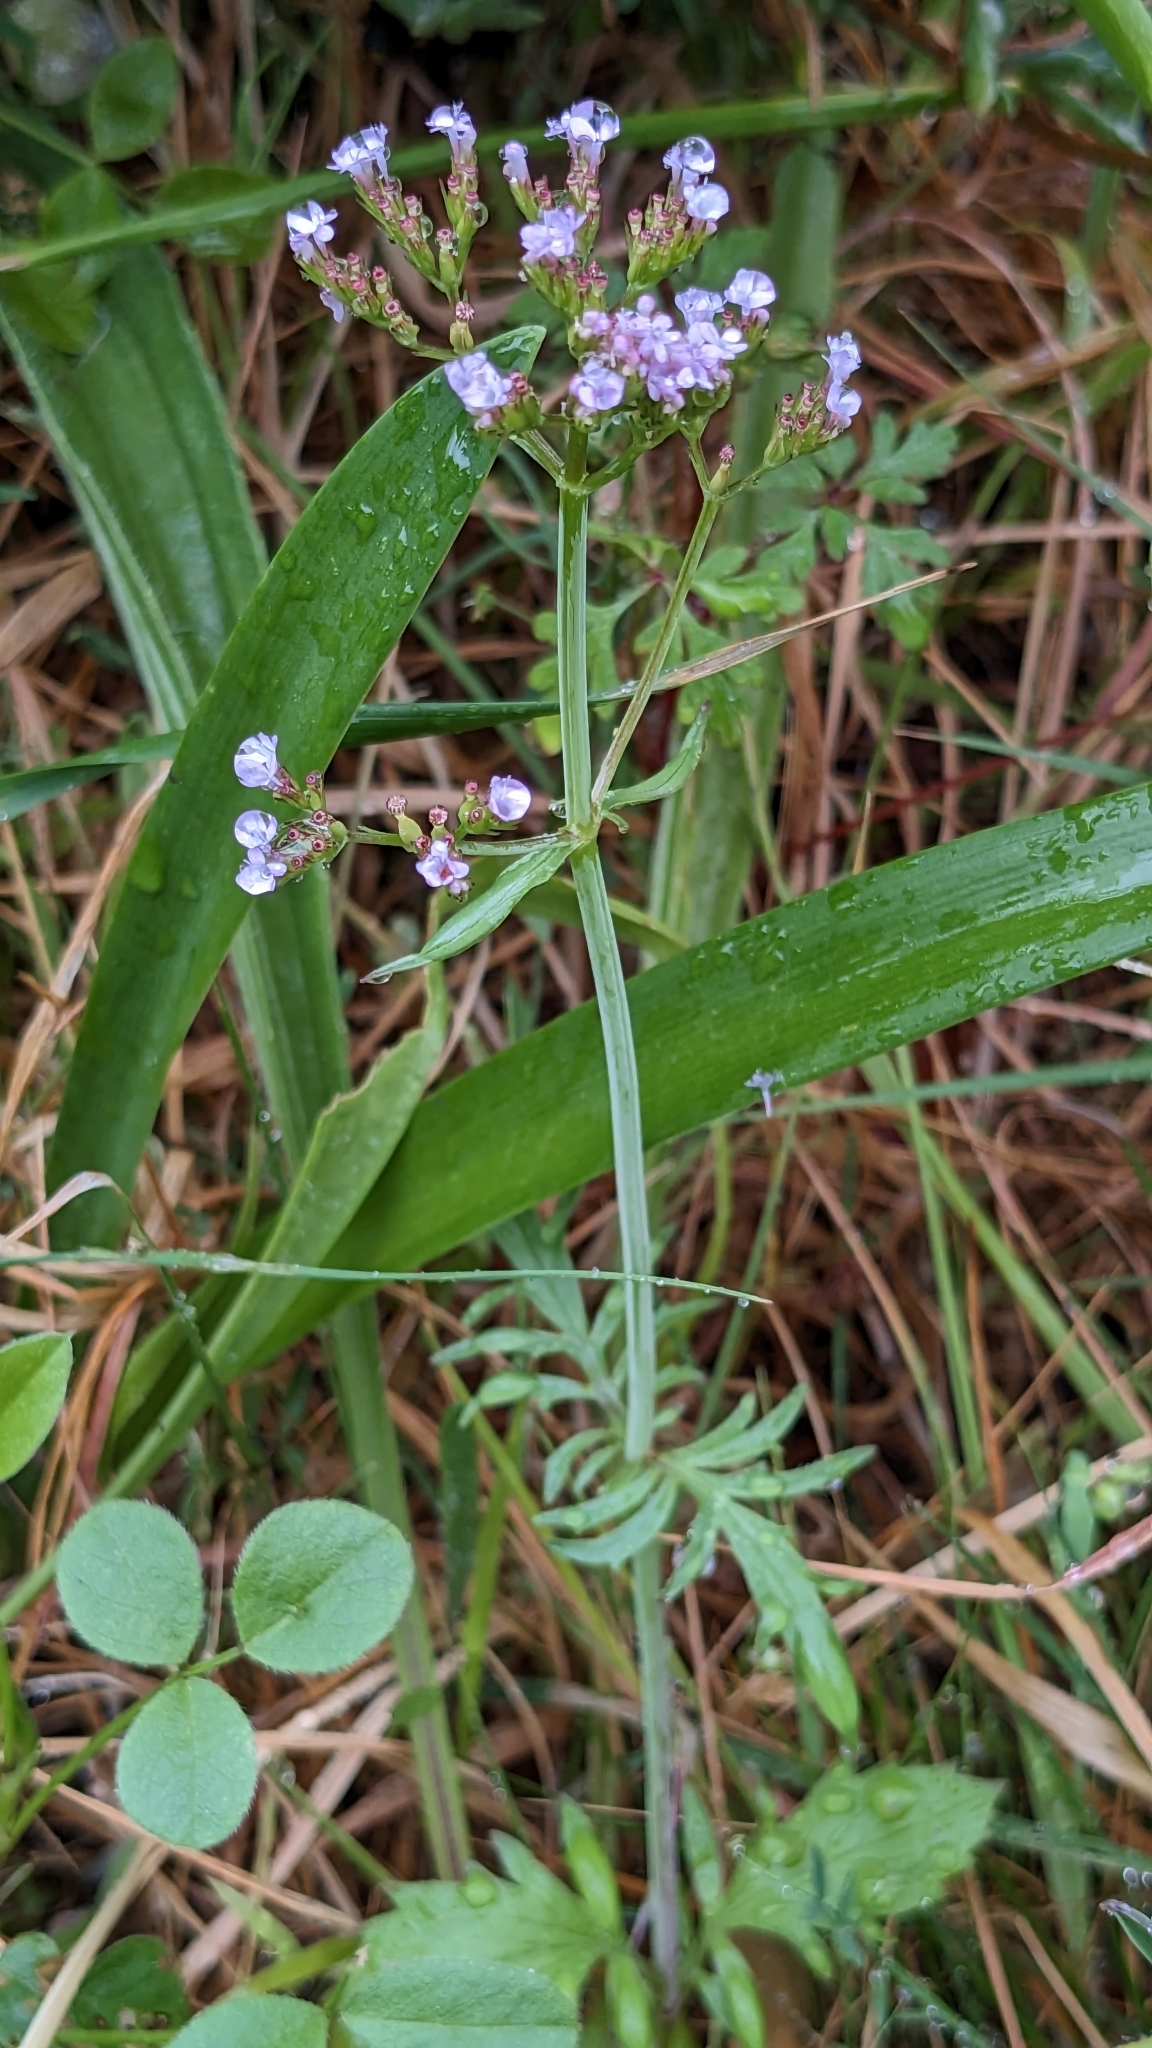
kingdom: Plantae
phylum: Tracheophyta
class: Magnoliopsida
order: Dipsacales
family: Caprifoliaceae
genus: Centranthus
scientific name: Centranthus calcitrapae
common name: Annual valerian
